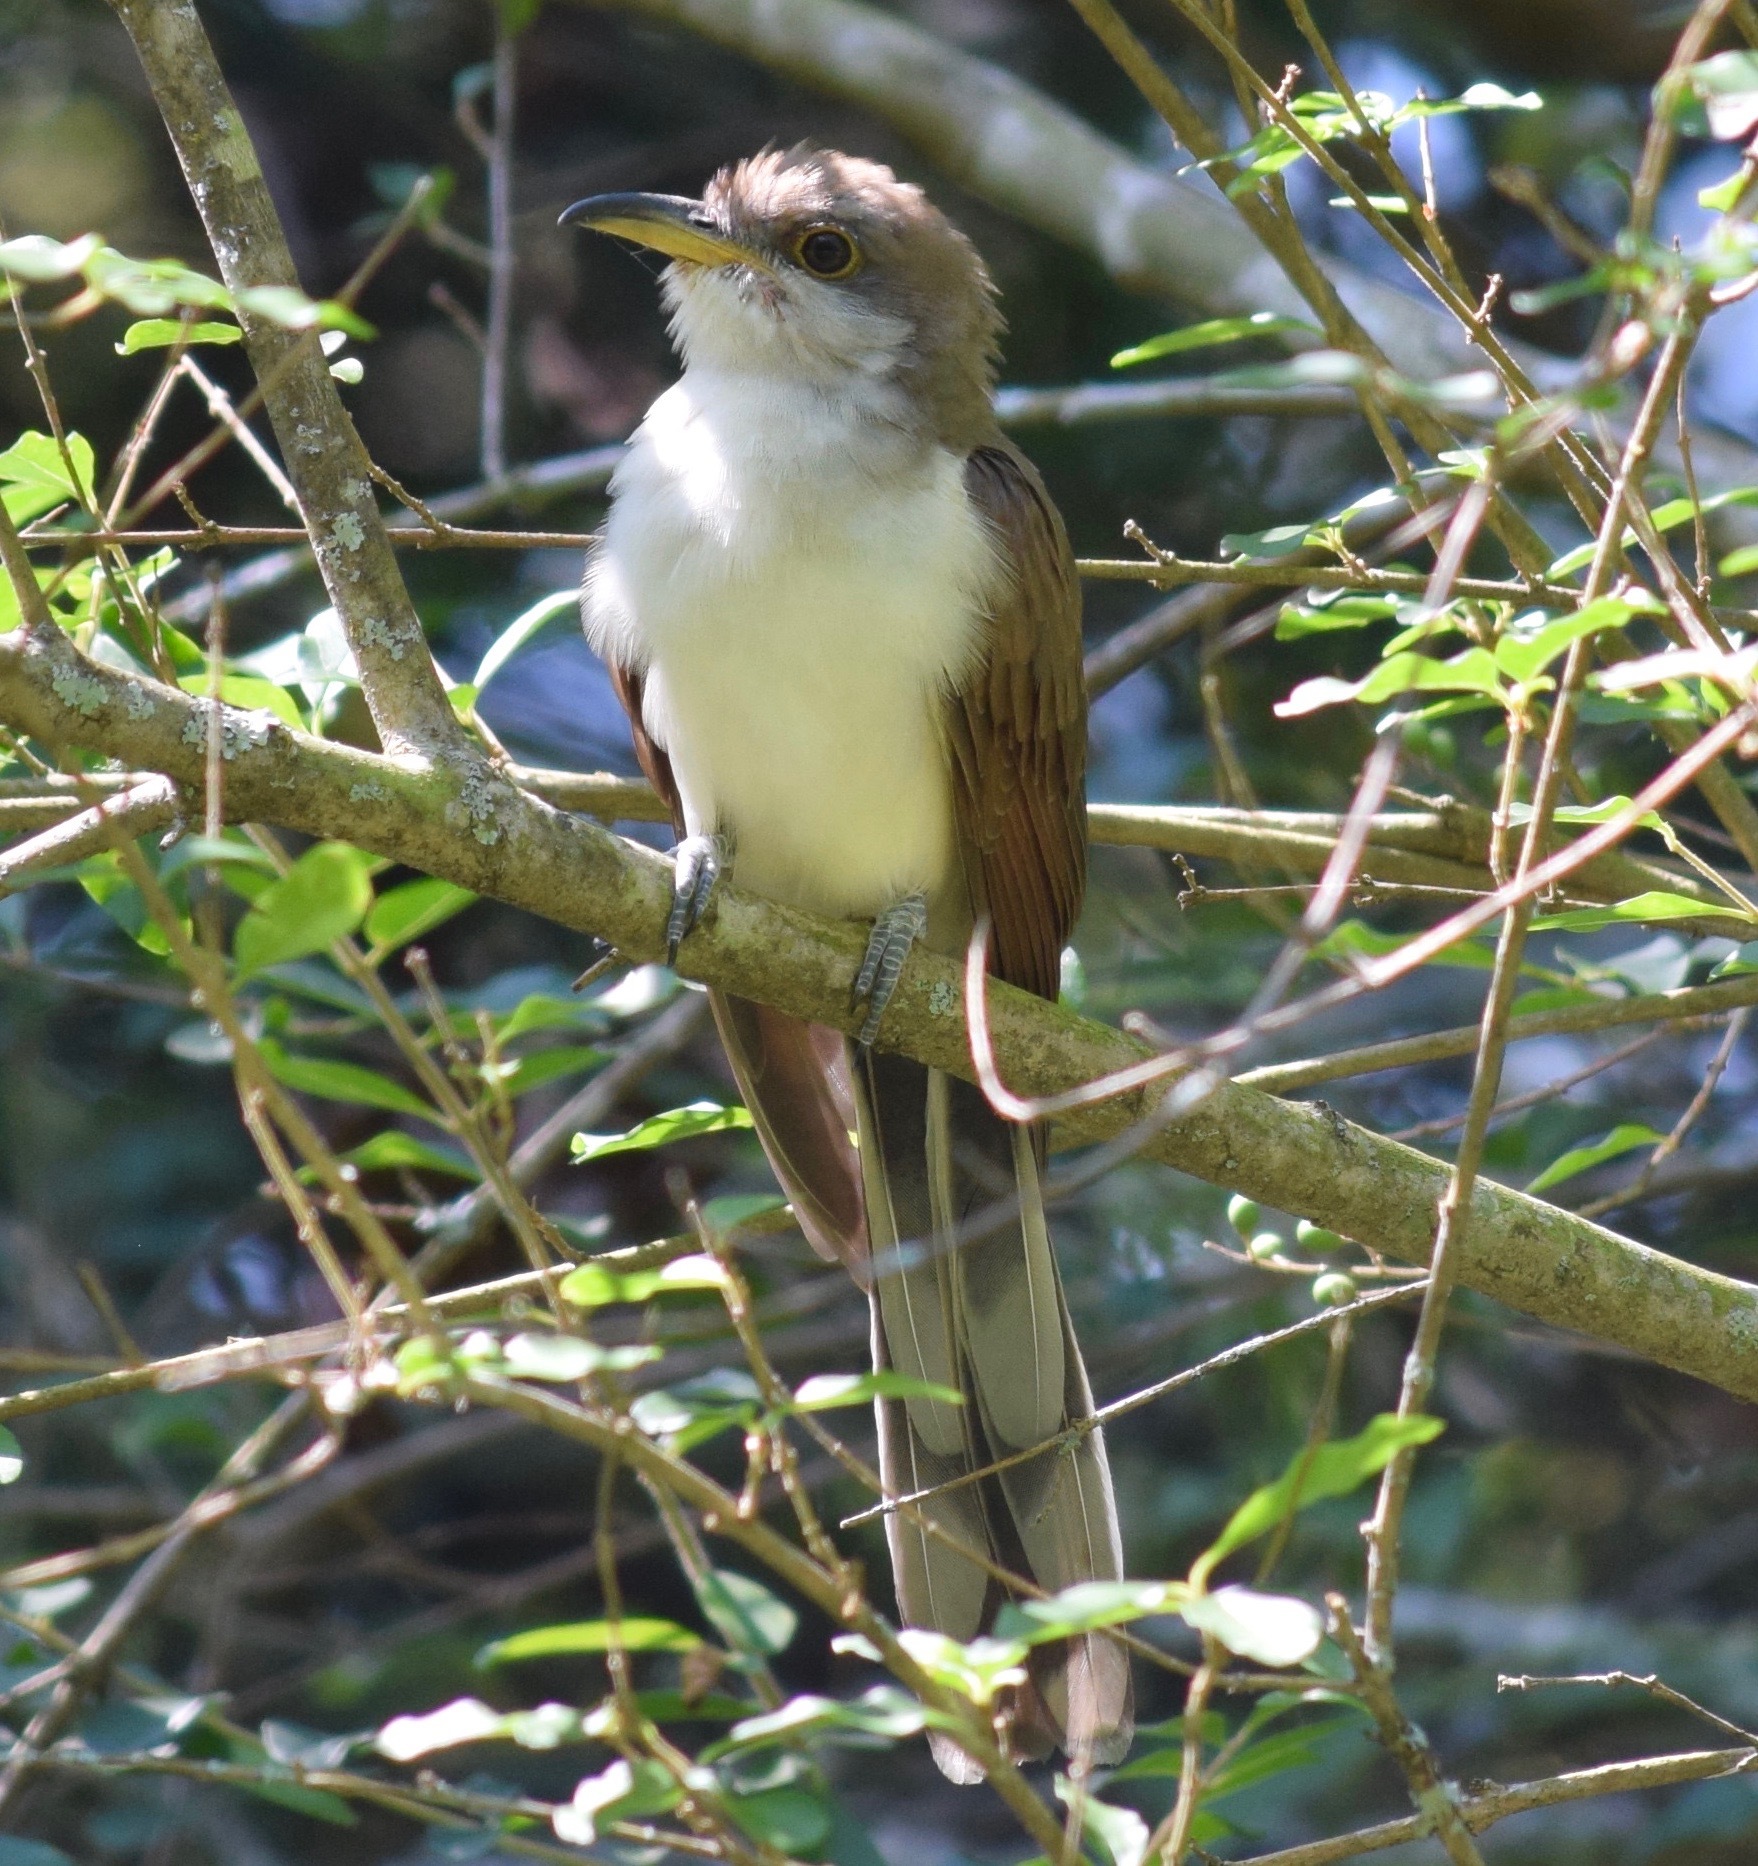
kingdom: Animalia
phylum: Chordata
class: Aves
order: Cuculiformes
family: Cuculidae
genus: Coccyzus
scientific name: Coccyzus americanus
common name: Yellow-billed cuckoo
